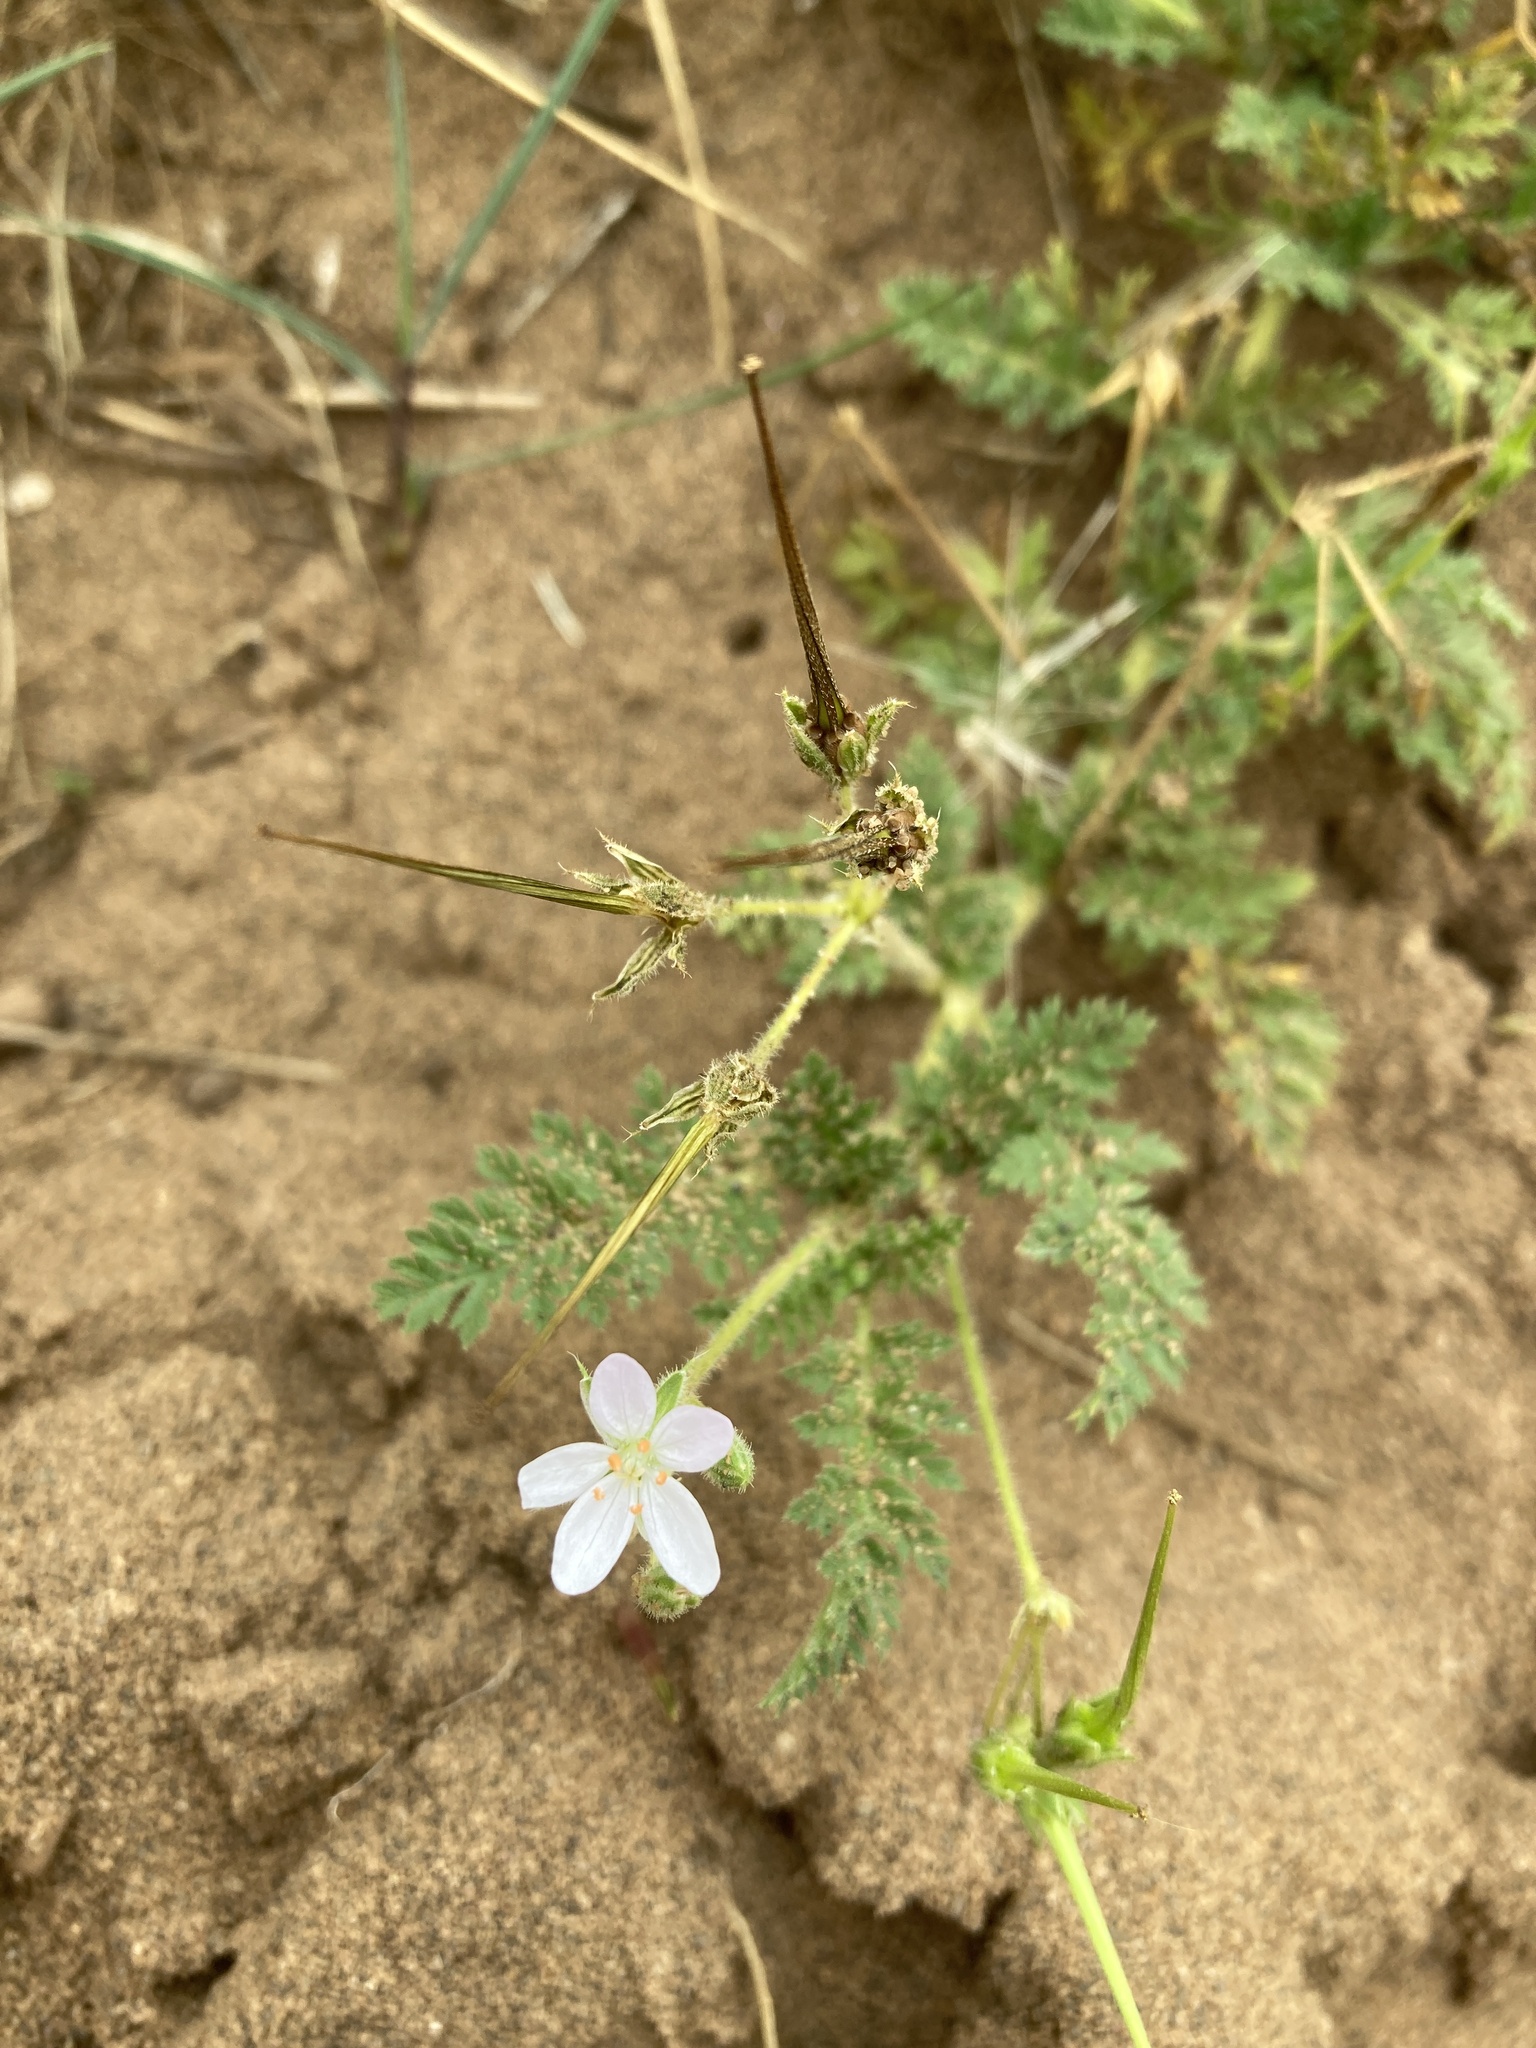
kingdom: Plantae
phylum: Tracheophyta
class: Magnoliopsida
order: Geraniales
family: Geraniaceae
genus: Erodium
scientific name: Erodium cicutarium
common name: Common stork's-bill
